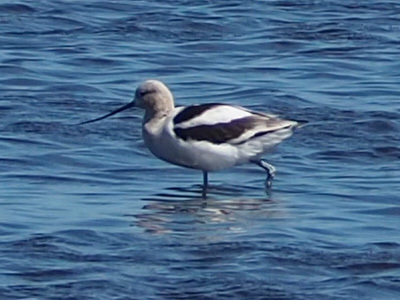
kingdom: Animalia
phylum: Chordata
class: Aves
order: Charadriiformes
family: Recurvirostridae
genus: Recurvirostra
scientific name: Recurvirostra americana
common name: American avocet
